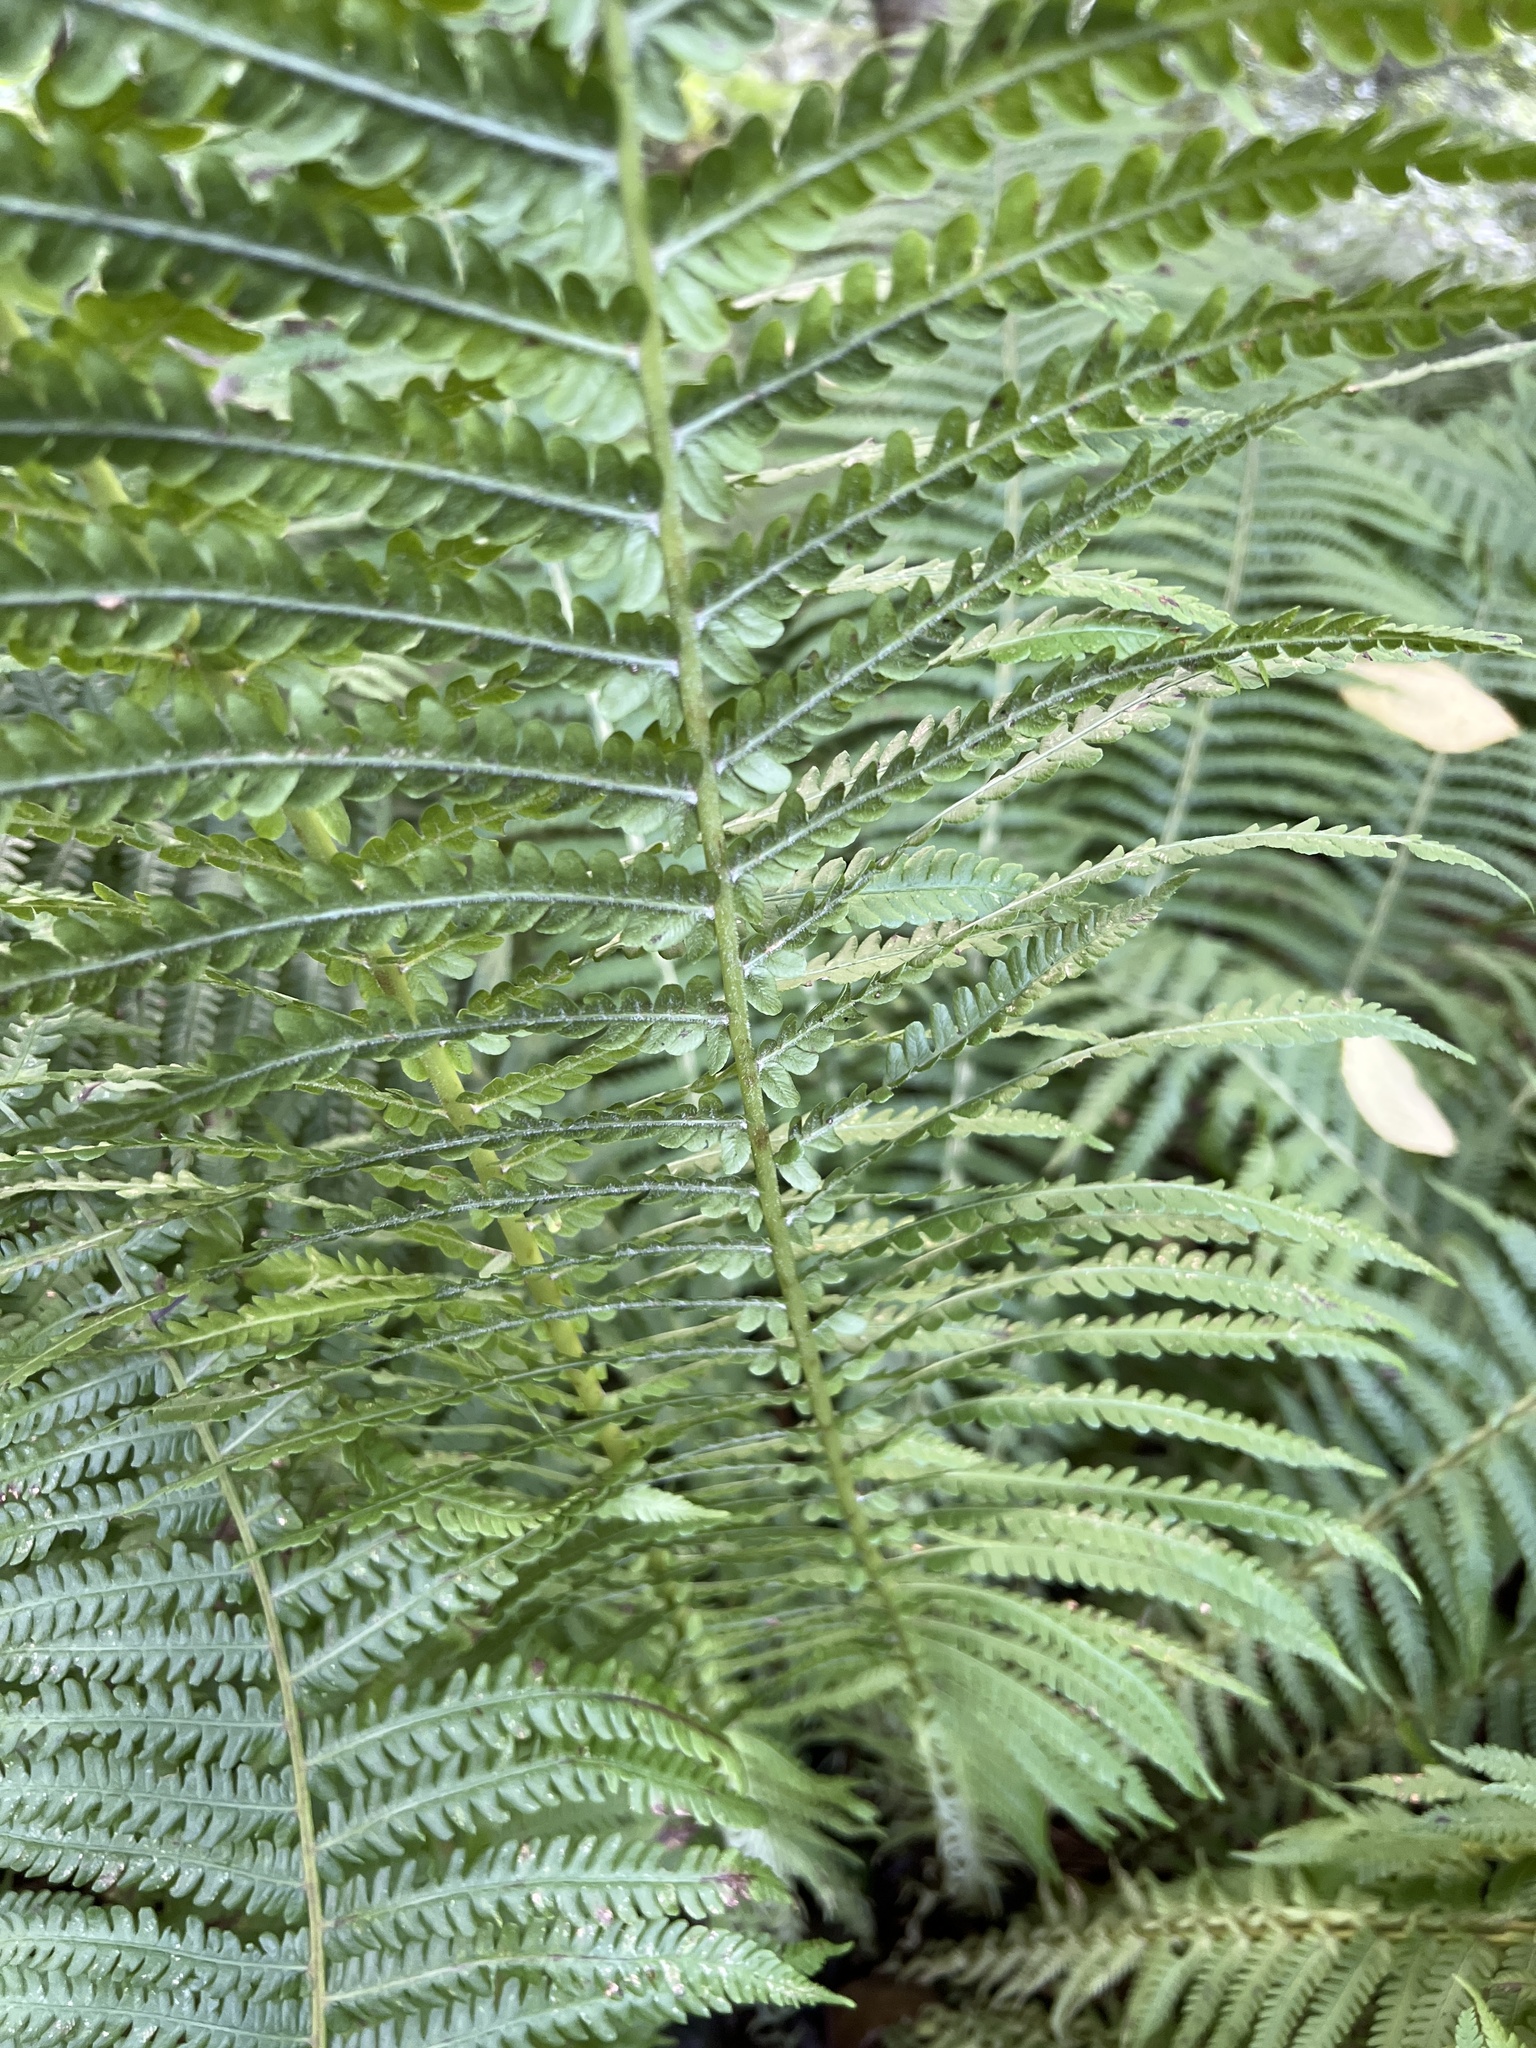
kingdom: Plantae
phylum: Tracheophyta
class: Polypodiopsida
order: Polypodiales
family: Onocleaceae
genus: Matteuccia
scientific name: Matteuccia struthiopteris
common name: Ostrich fern
